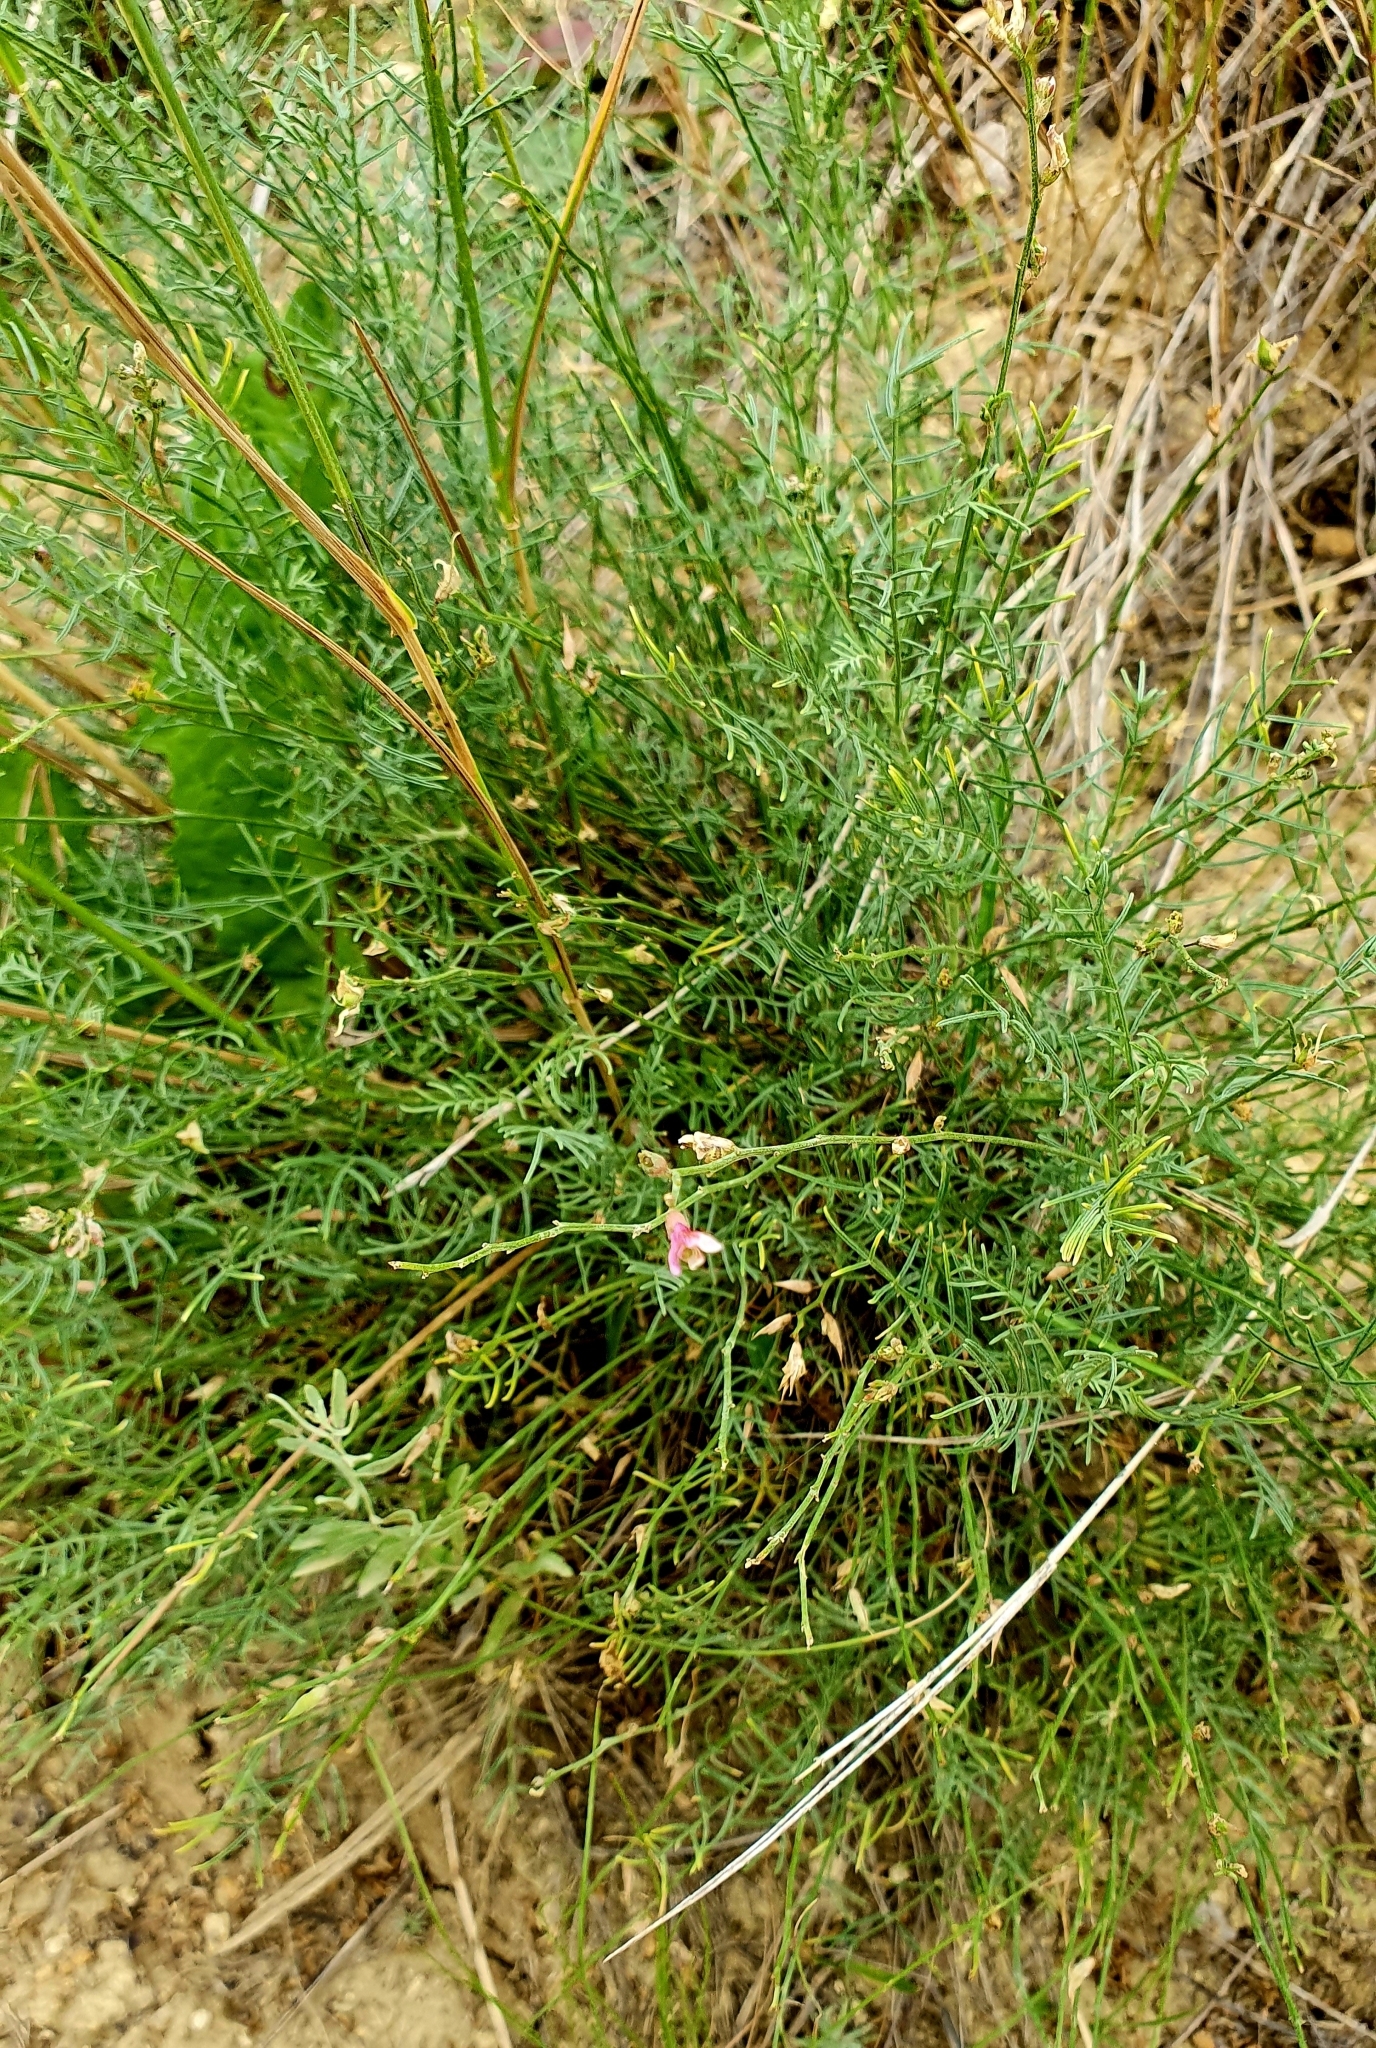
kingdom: Plantae
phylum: Tracheophyta
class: Magnoliopsida
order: Fabales
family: Fabaceae
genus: Astragalus
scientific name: Astragalus
